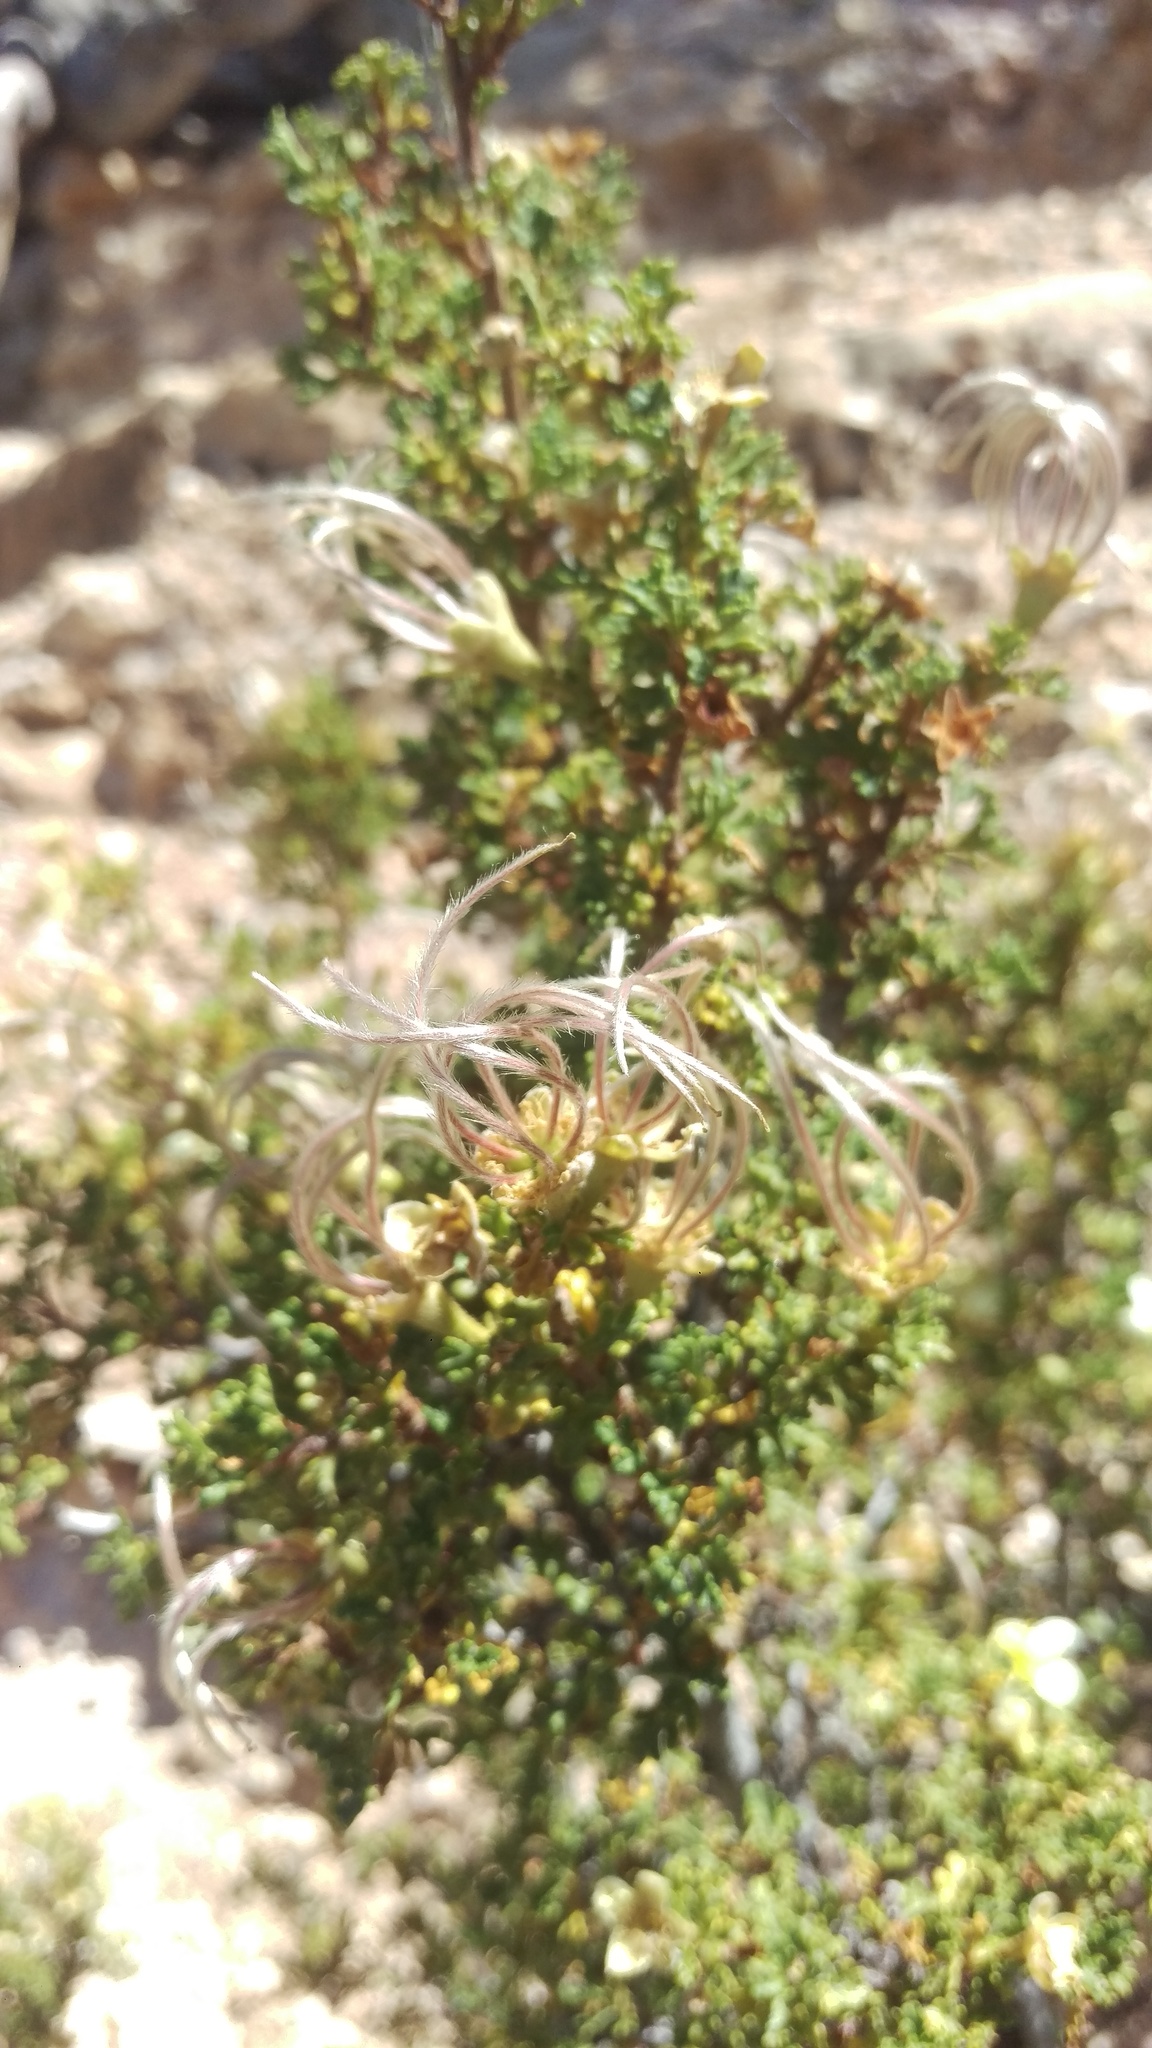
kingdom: Plantae
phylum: Tracheophyta
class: Magnoliopsida
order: Rosales
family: Rosaceae
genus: Purshia
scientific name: Purshia stansburiana
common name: Stansbury's cliffrose
